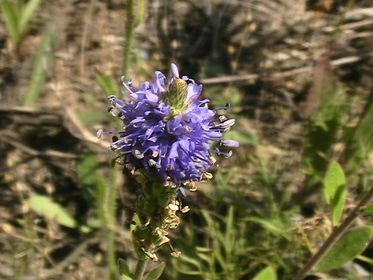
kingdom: Plantae
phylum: Tracheophyta
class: Magnoliopsida
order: Lamiales
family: Plantaginaceae
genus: Veronica
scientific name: Veronica spicata
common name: Spiked speedwell
